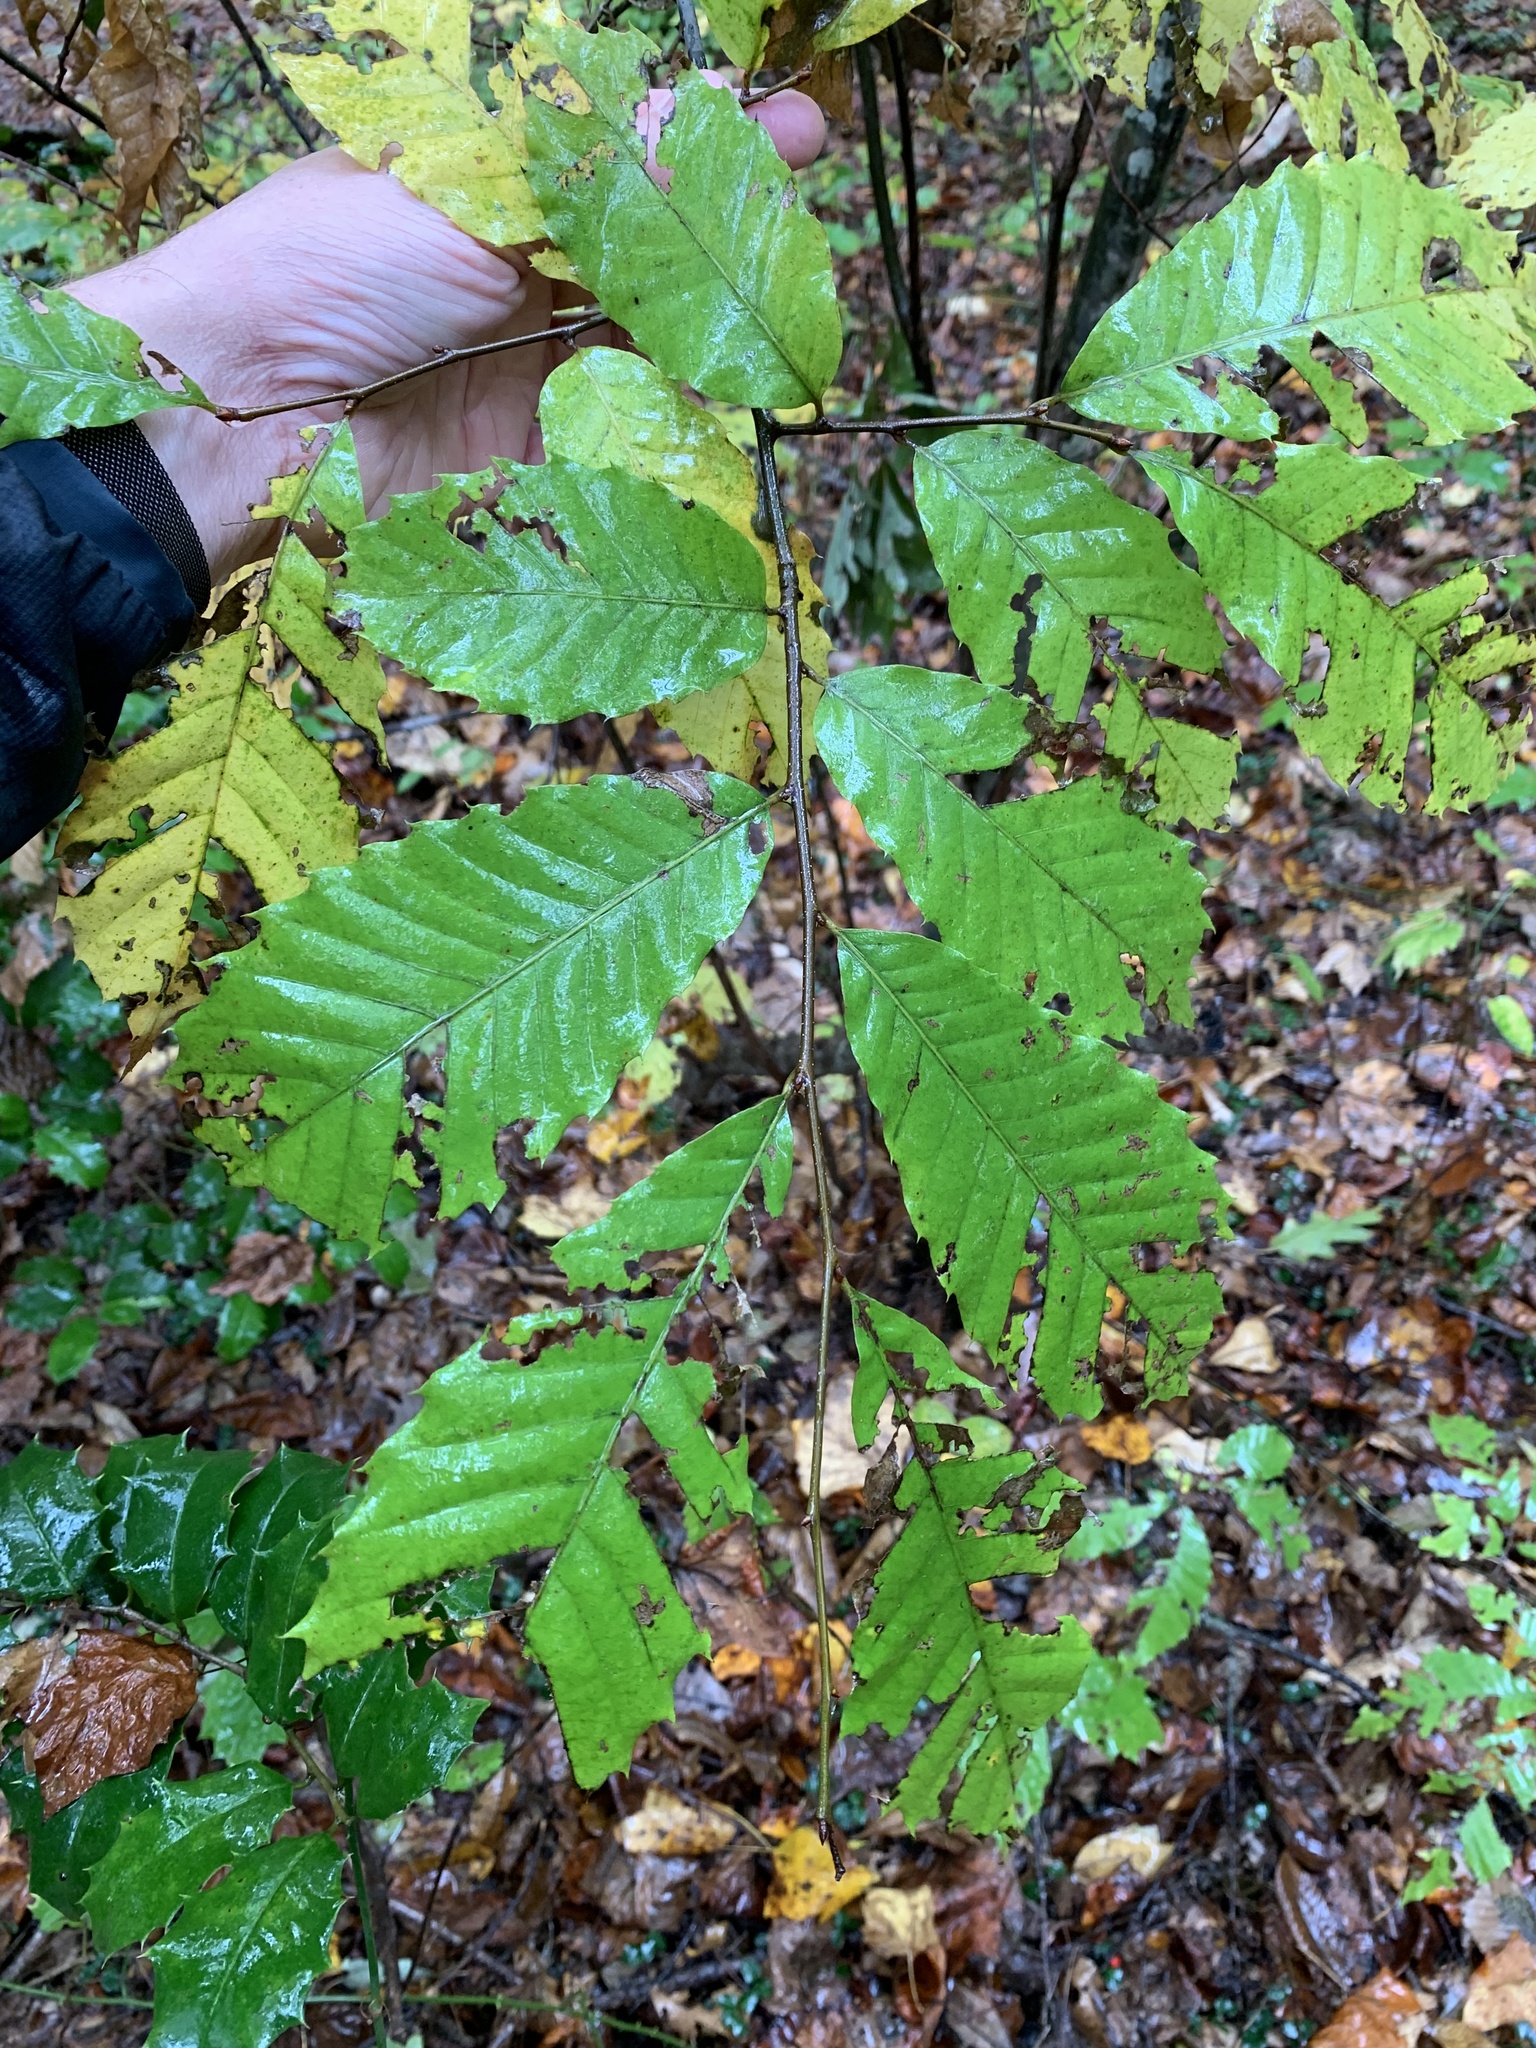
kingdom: Plantae
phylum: Tracheophyta
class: Magnoliopsida
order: Fagales
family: Fagaceae
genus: Castanea
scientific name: Castanea dentata
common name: American chestnut
